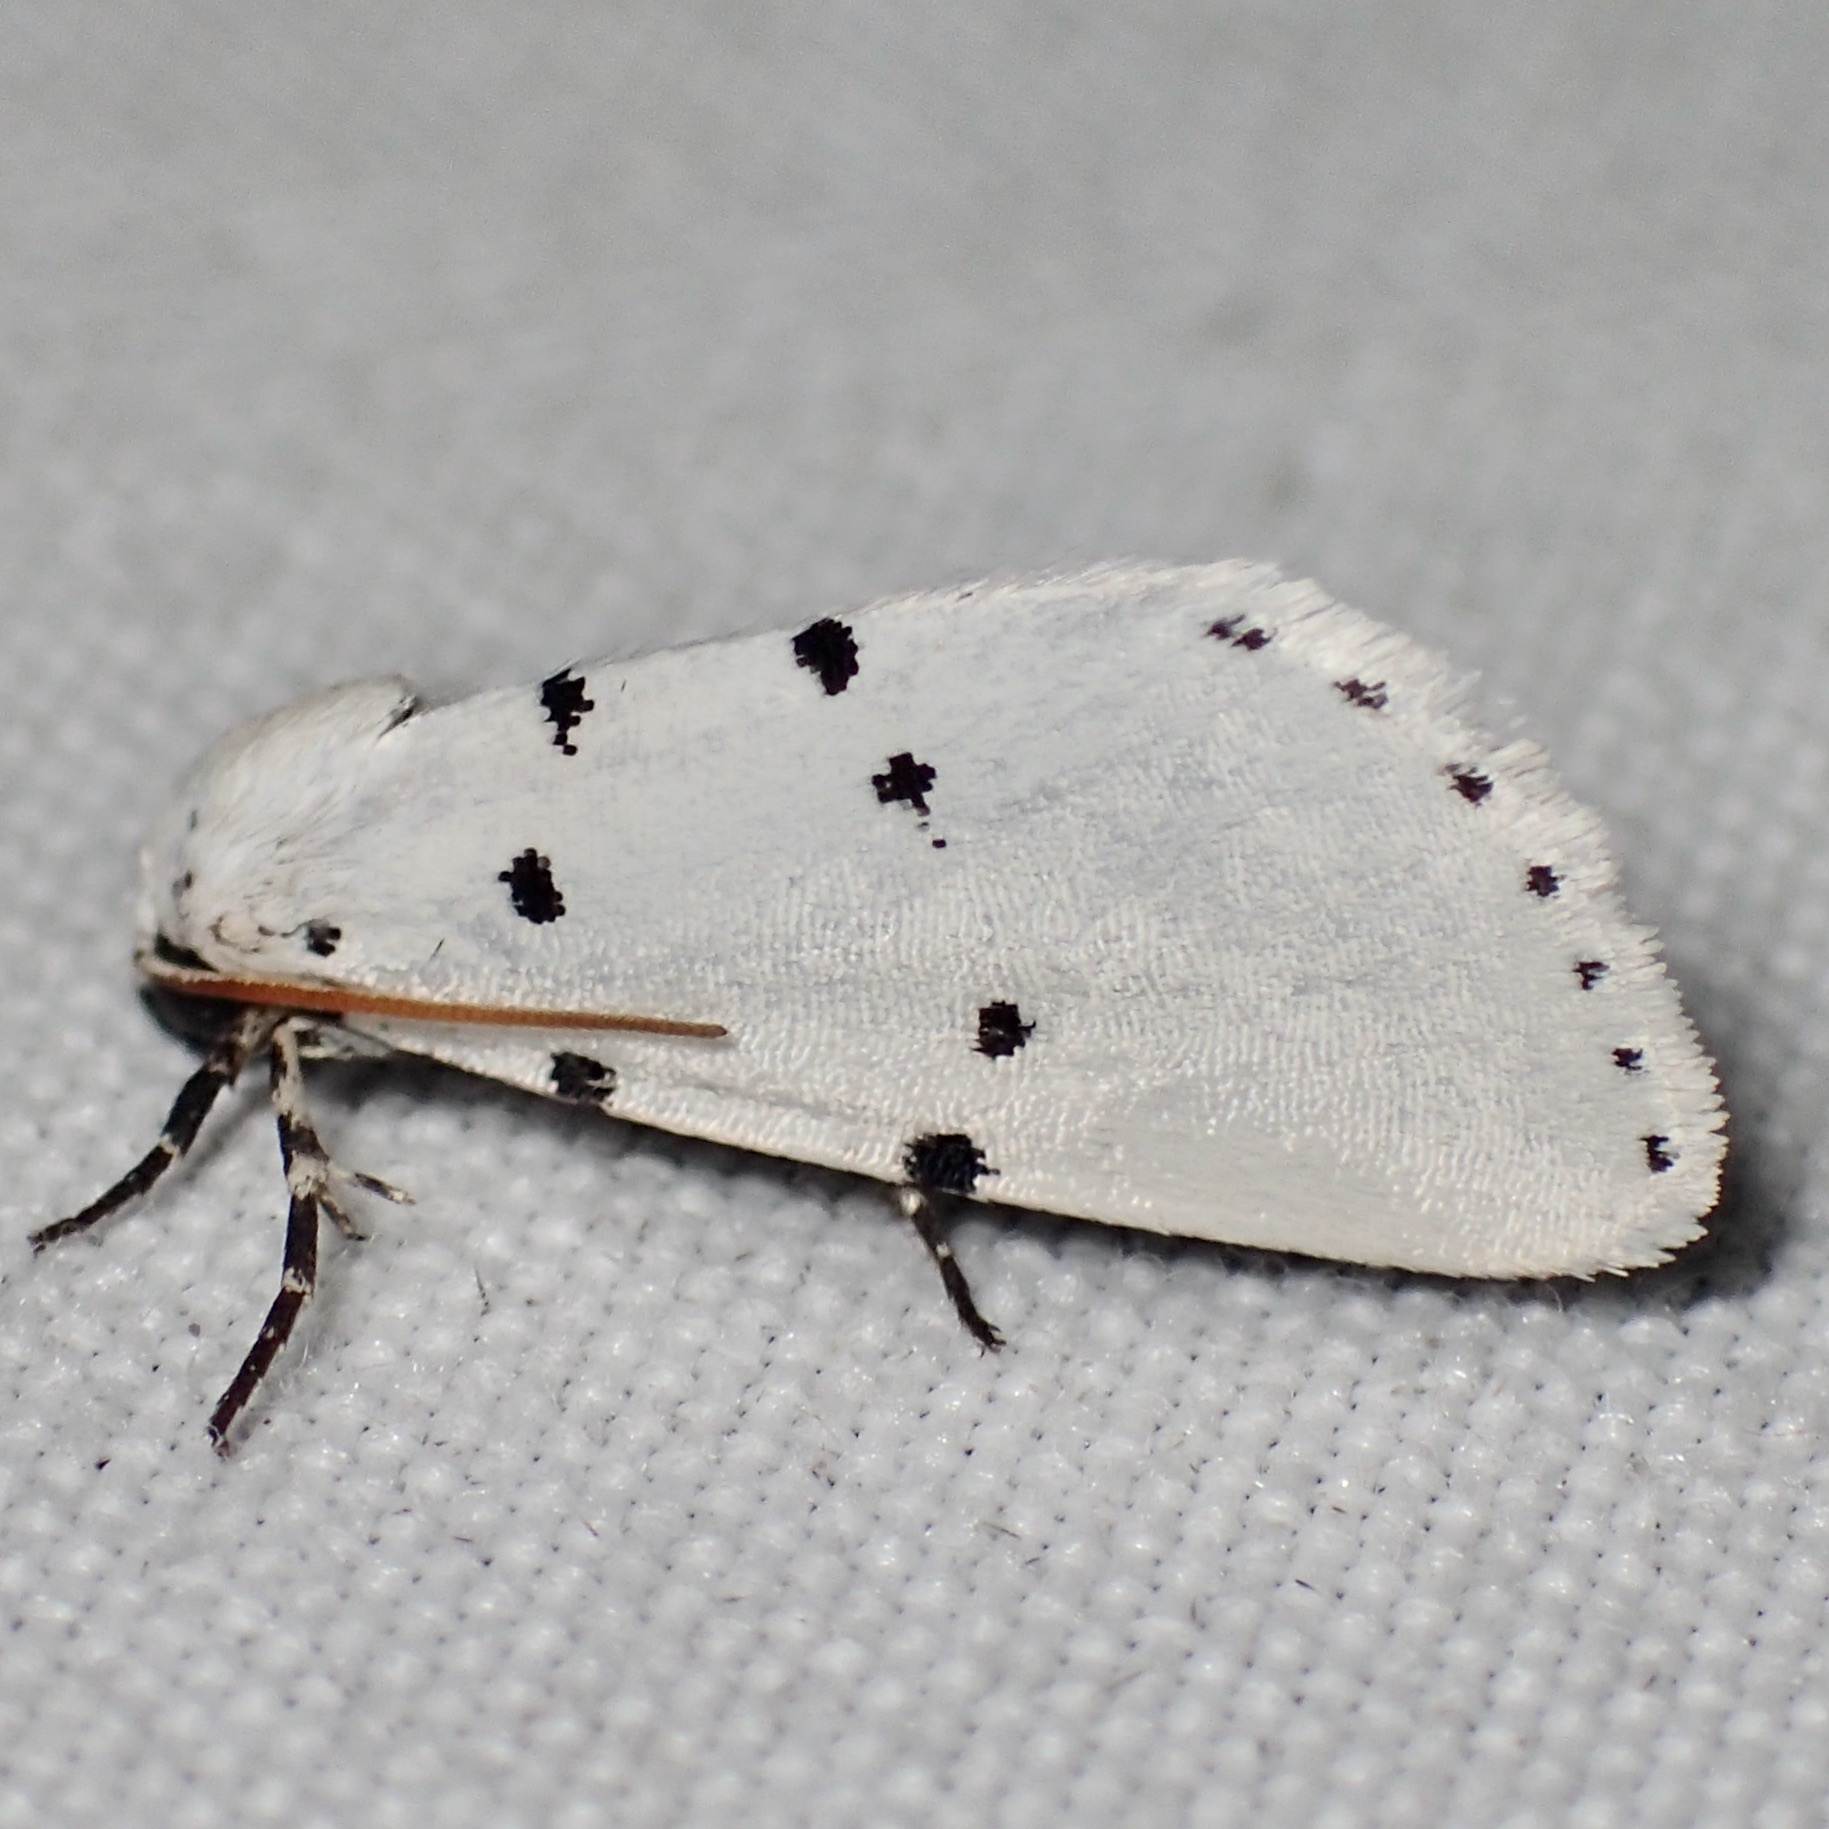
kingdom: Animalia
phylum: Arthropoda
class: Insecta
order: Lepidoptera
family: Noctuidae
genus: Grotella
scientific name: Grotella sampita
